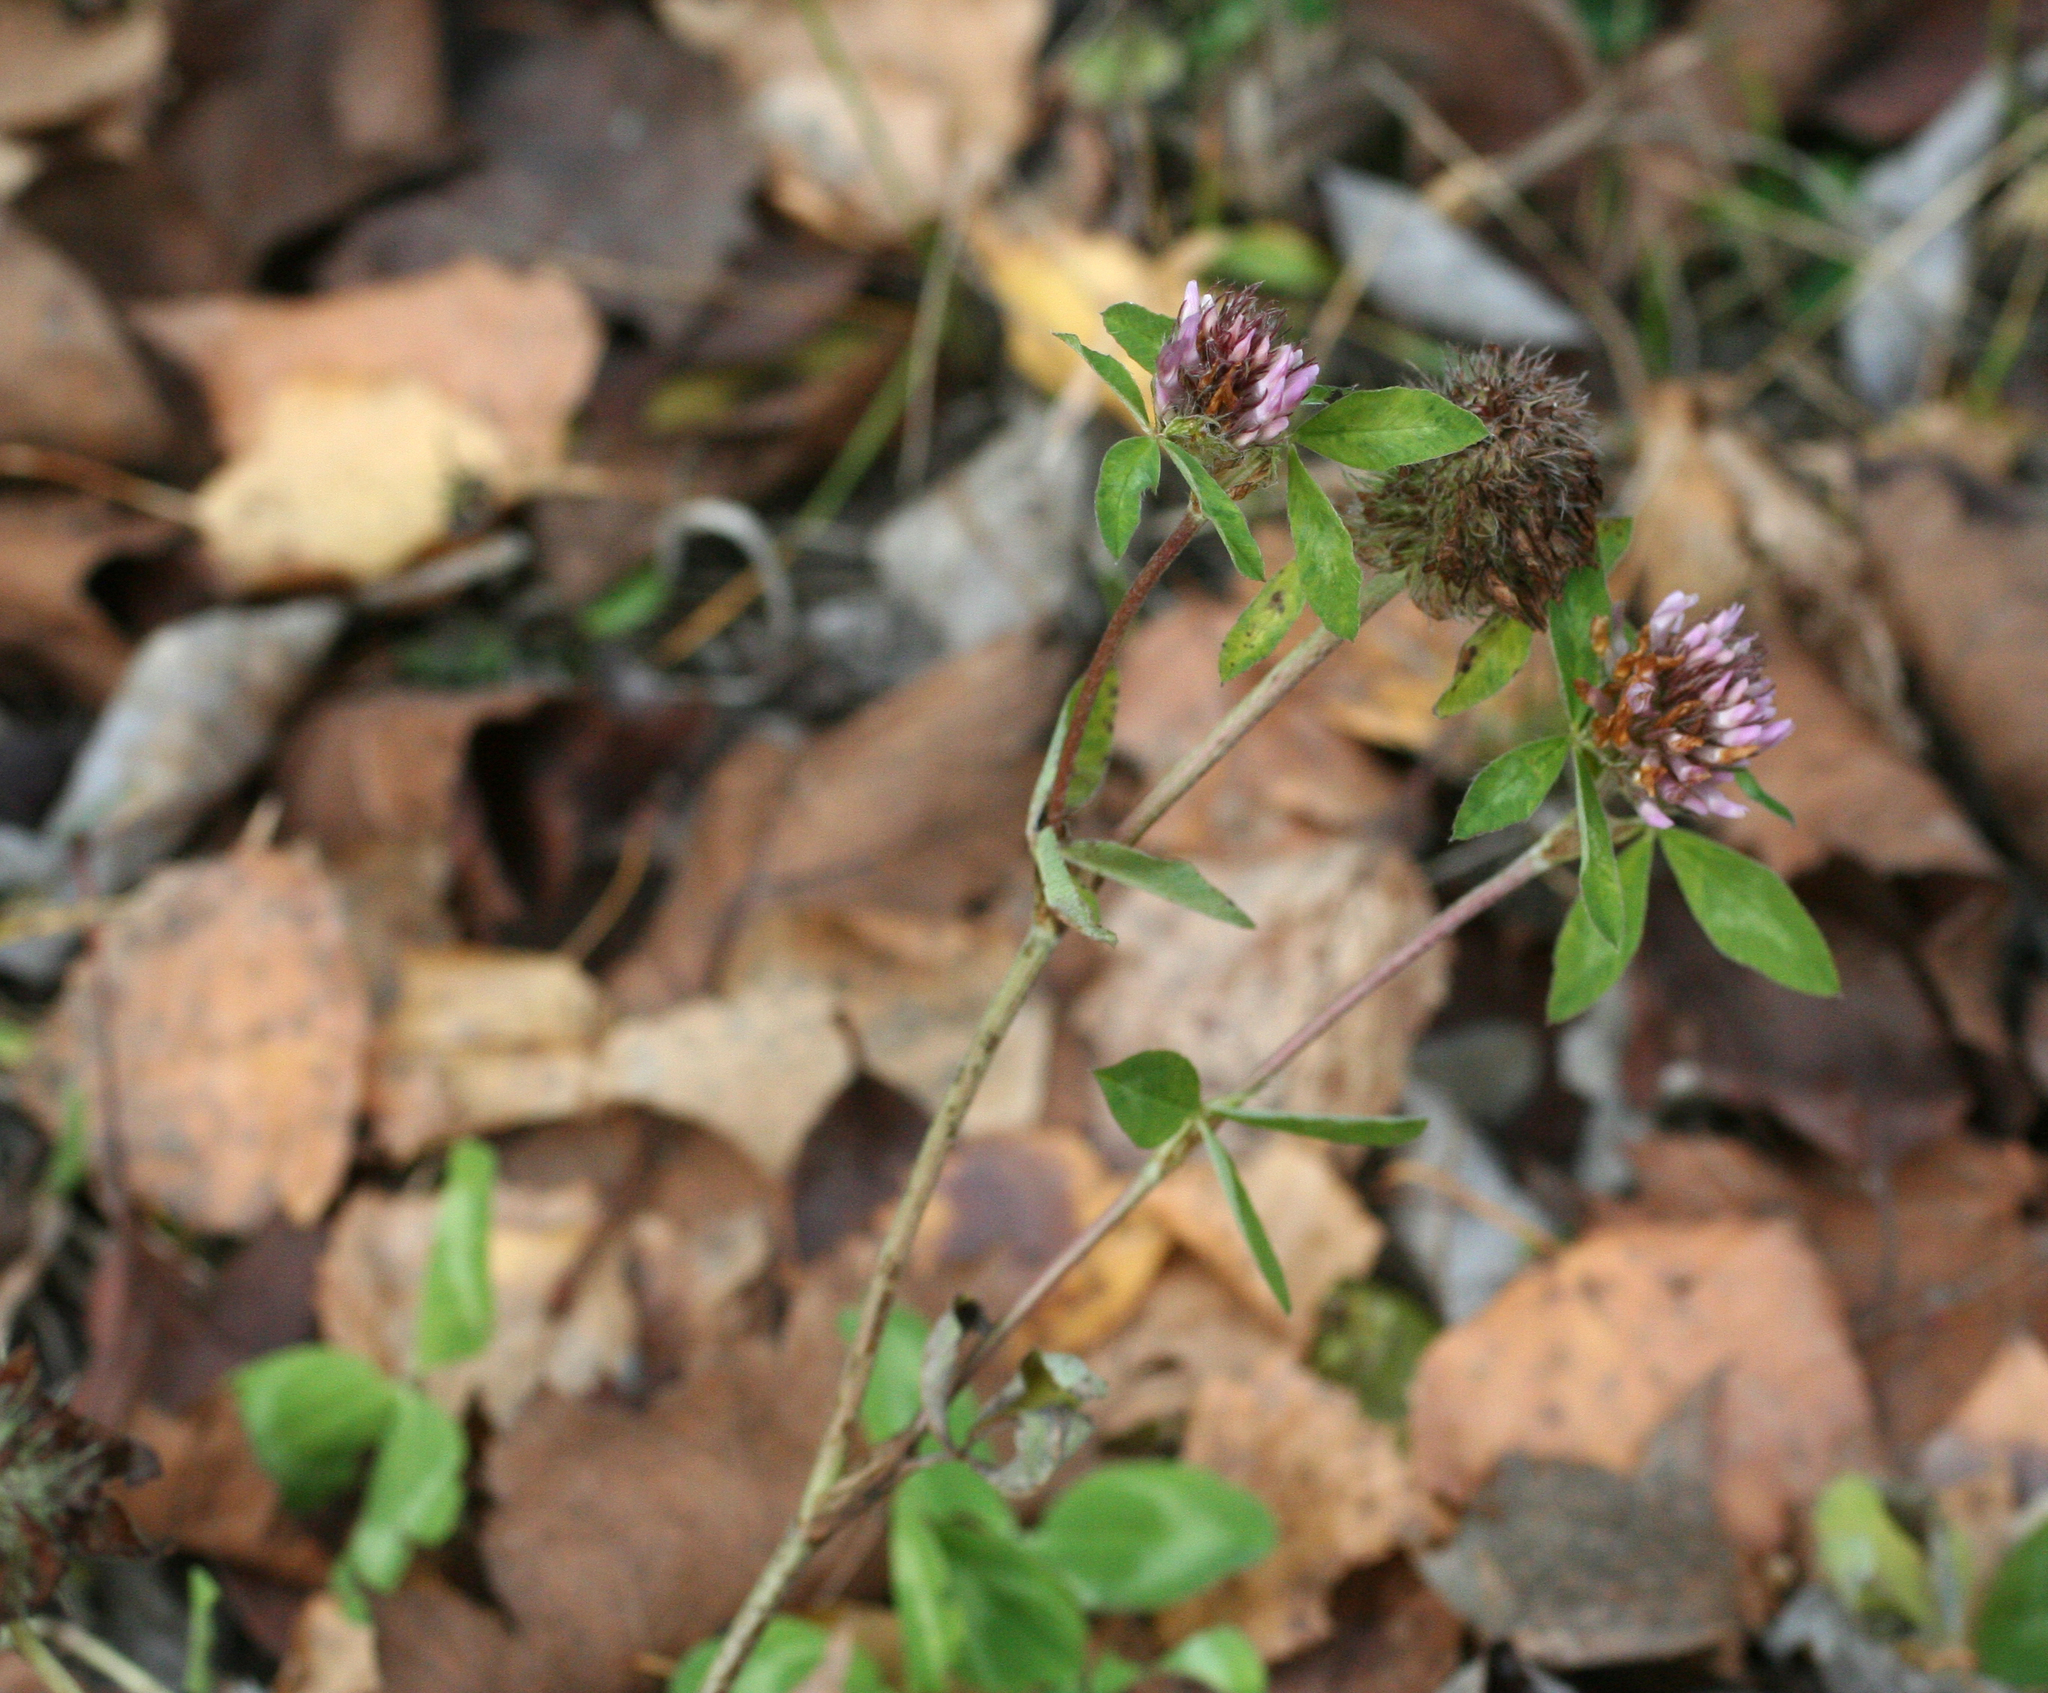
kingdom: Plantae
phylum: Tracheophyta
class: Magnoliopsida
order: Fabales
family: Fabaceae
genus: Trifolium
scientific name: Trifolium pratense
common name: Red clover
